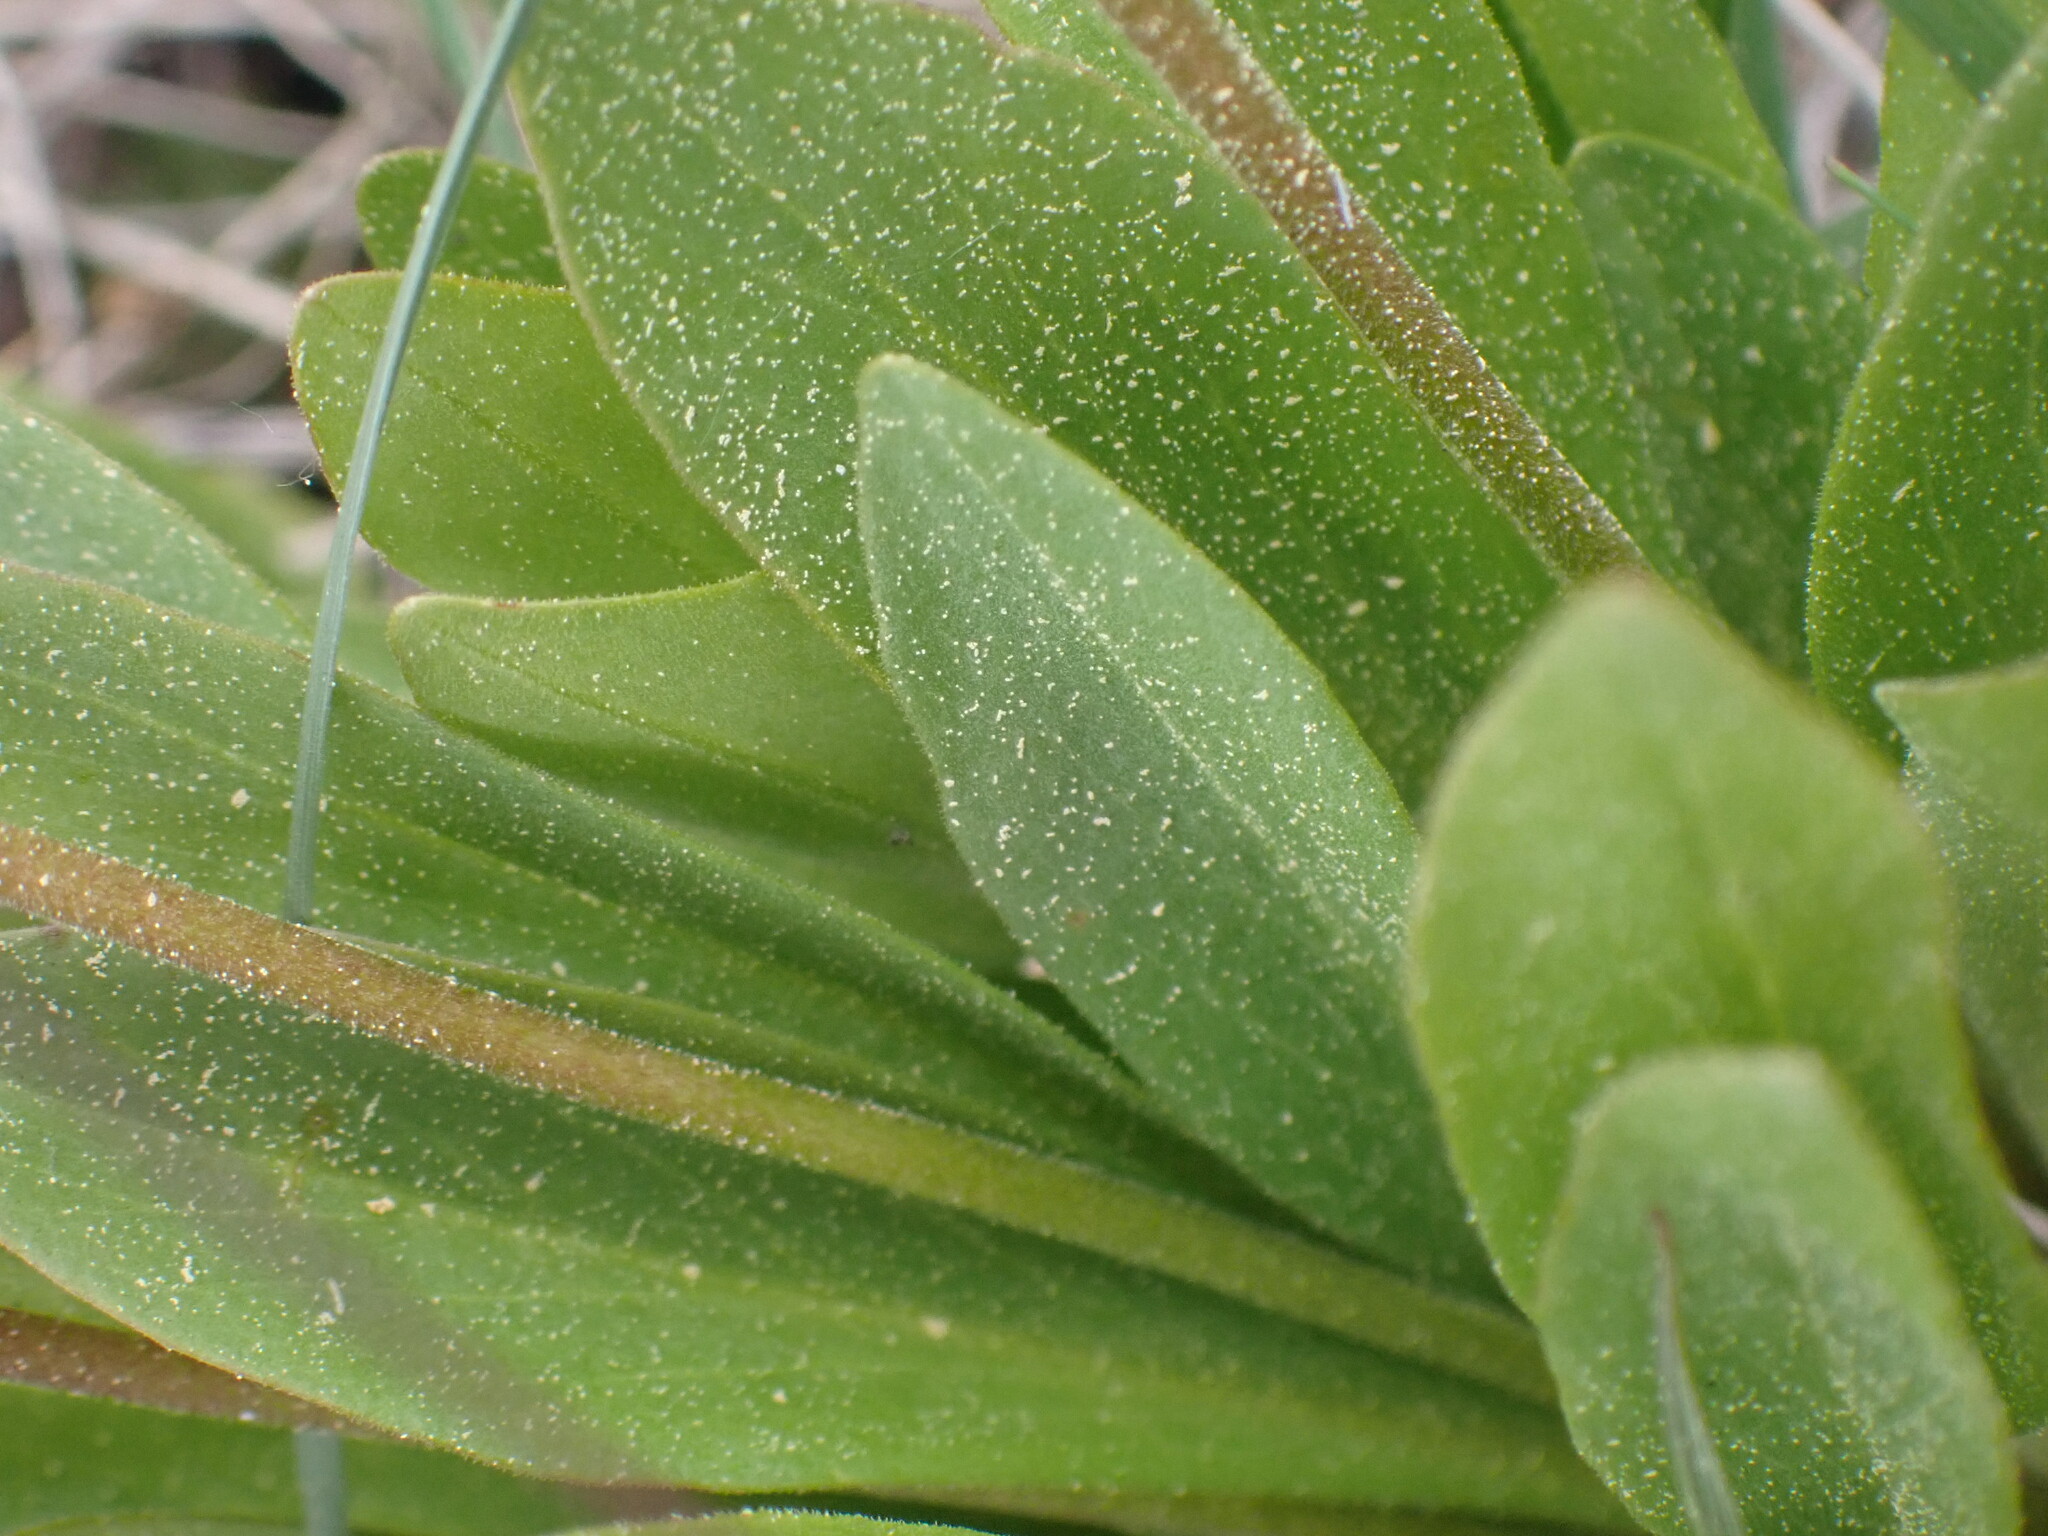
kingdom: Plantae
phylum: Tracheophyta
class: Magnoliopsida
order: Ericales
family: Primulaceae
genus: Dodecatheon
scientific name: Dodecatheon pulchellum
